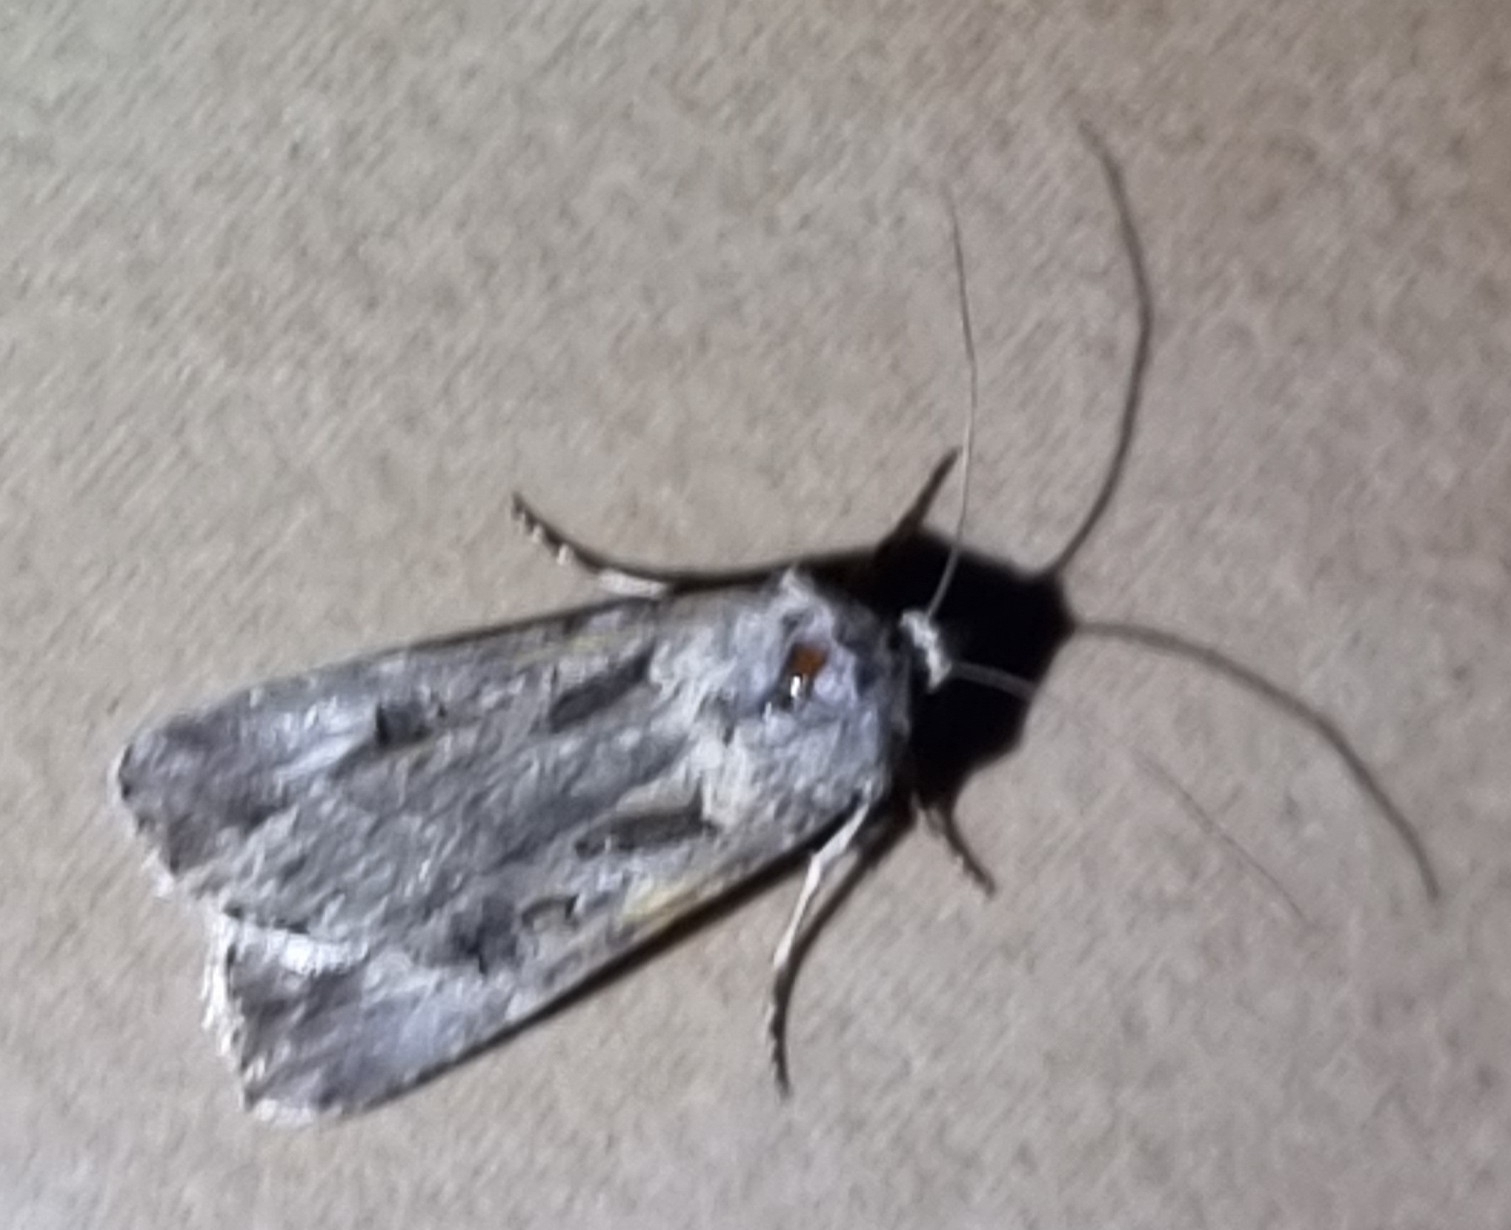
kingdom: Animalia
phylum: Arthropoda
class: Insecta
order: Lepidoptera
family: Noctuidae
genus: Agrotis
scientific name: Agrotis munda
